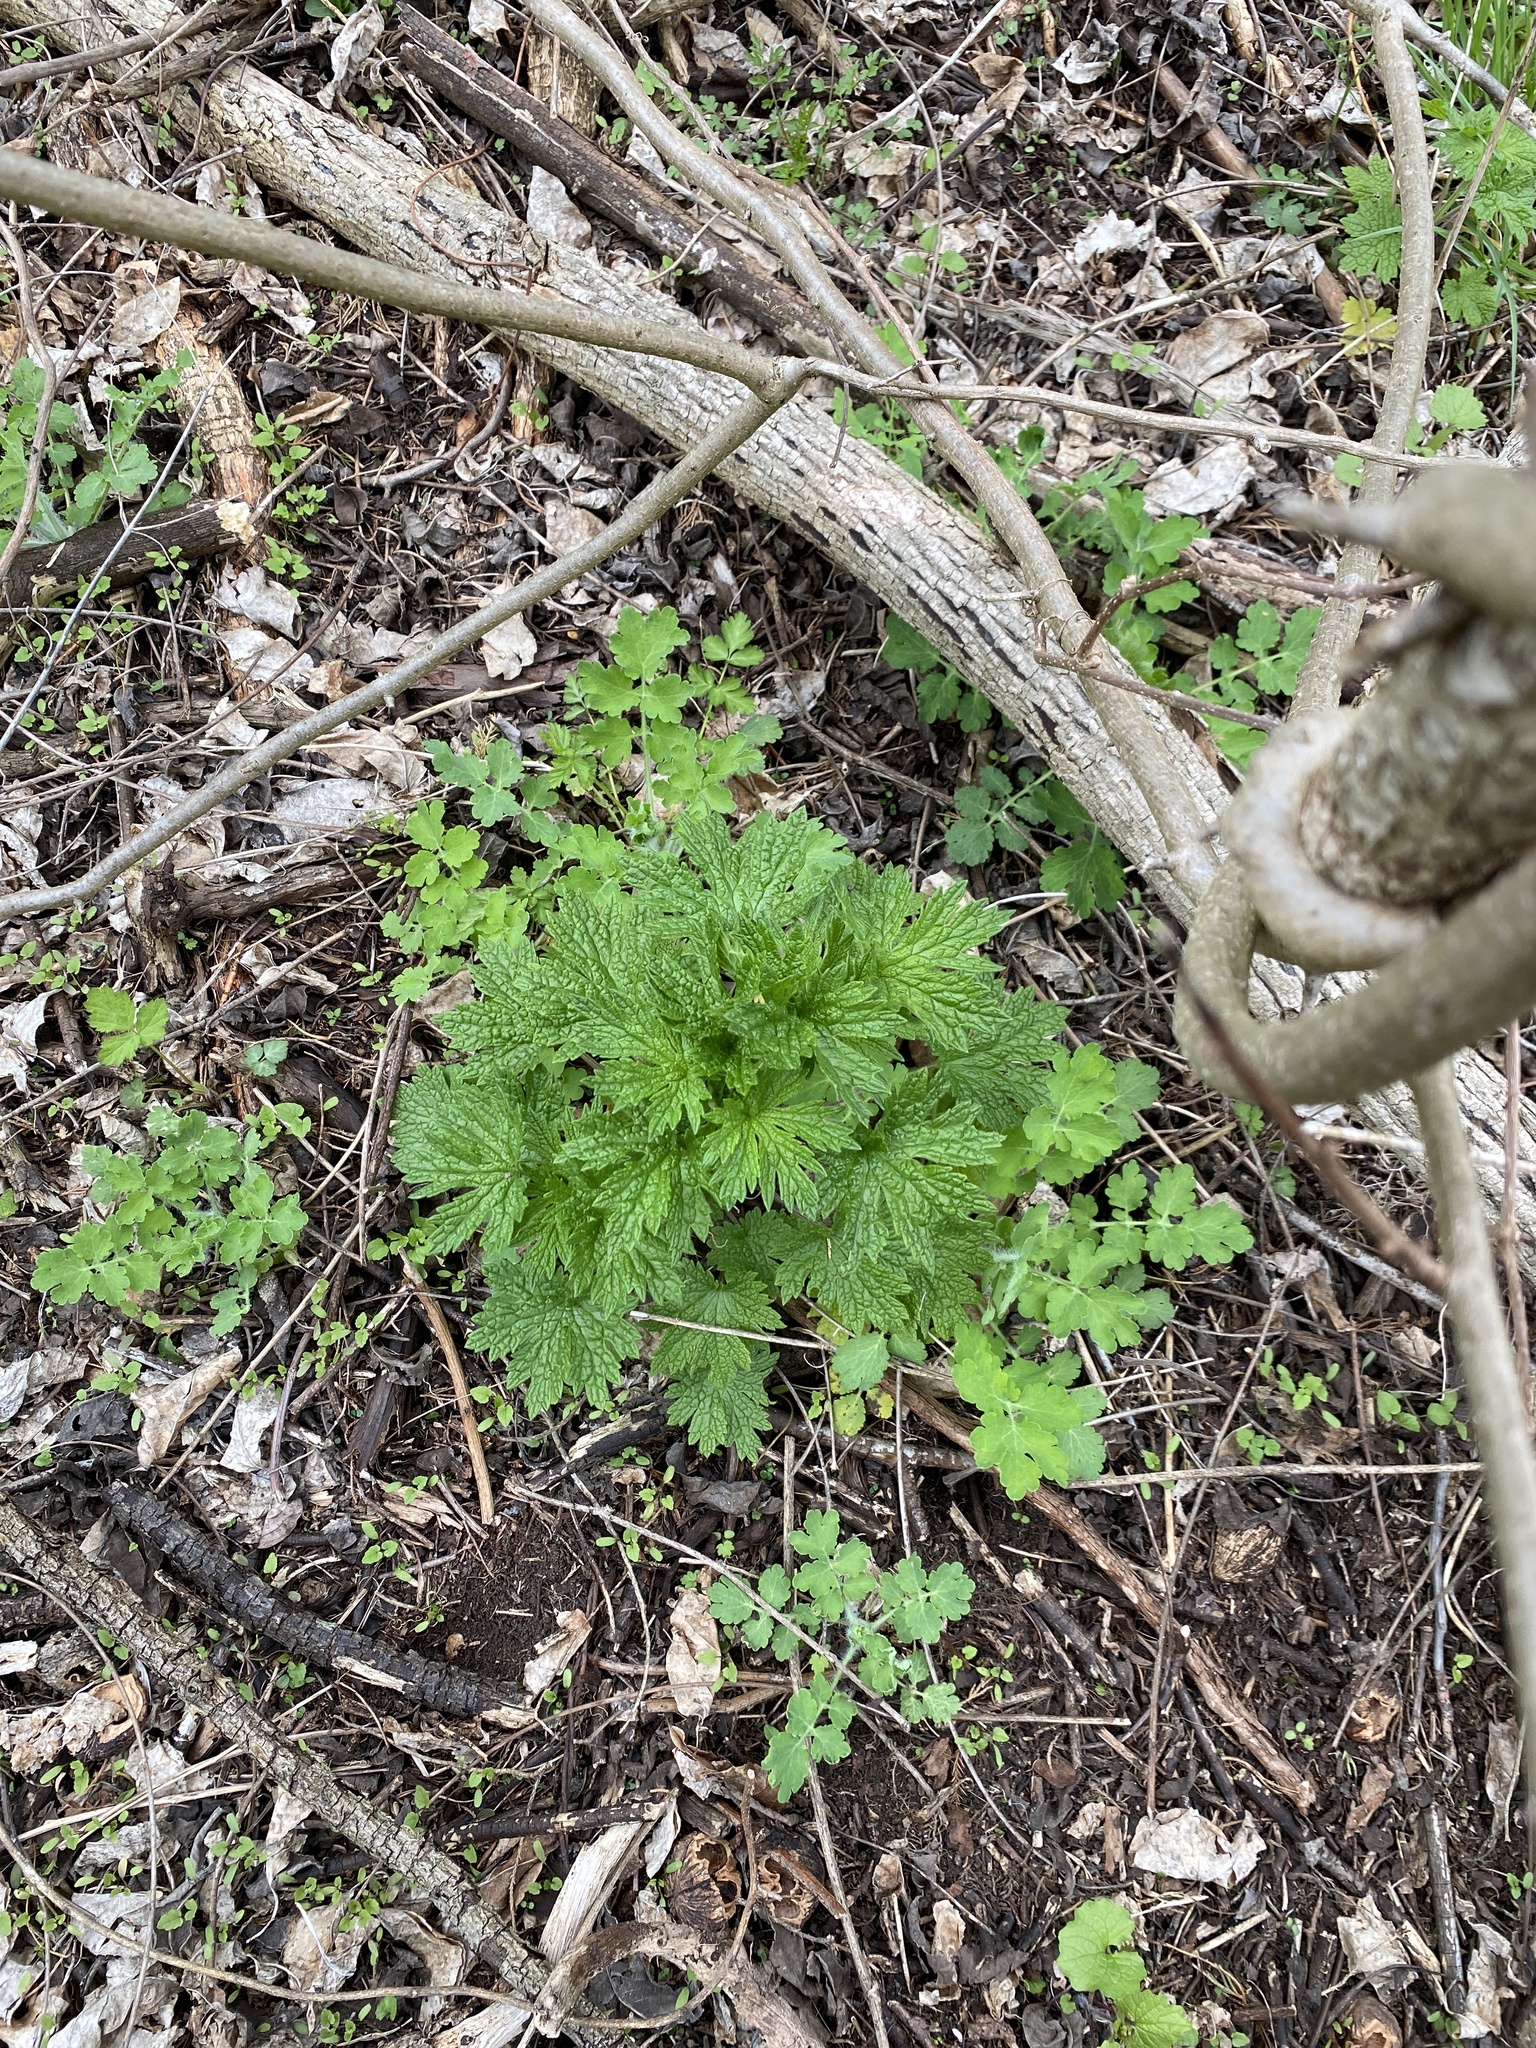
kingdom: Plantae
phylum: Tracheophyta
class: Magnoliopsida
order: Lamiales
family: Lamiaceae
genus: Leonurus
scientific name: Leonurus cardiaca
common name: Motherwort
